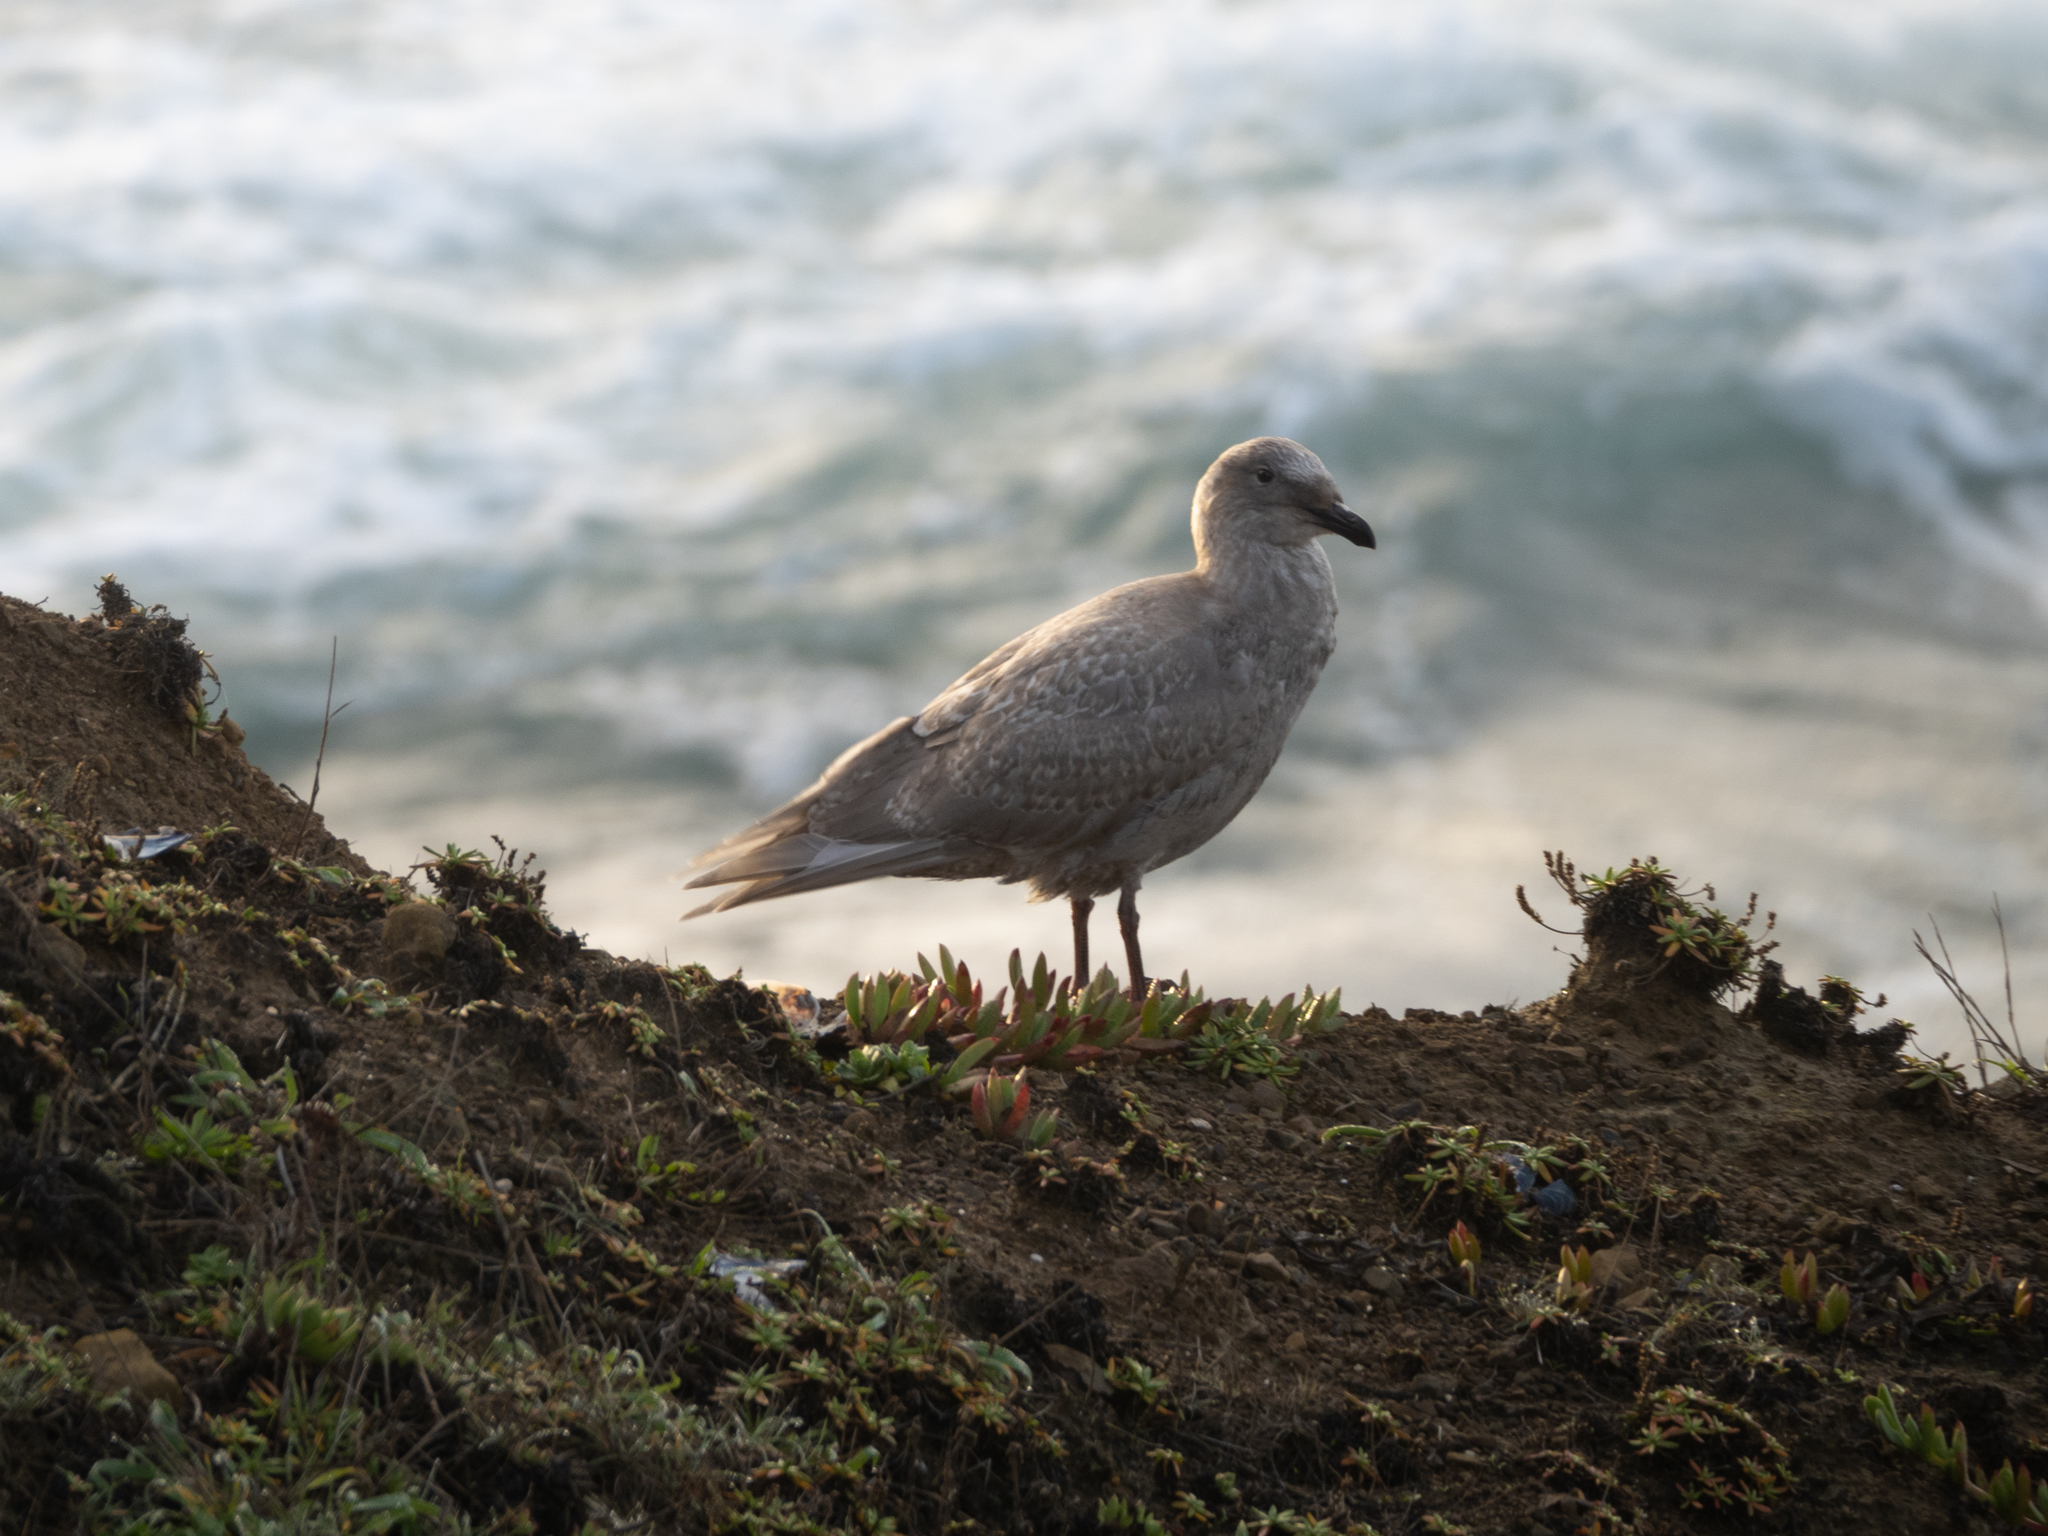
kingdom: Animalia
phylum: Chordata
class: Aves
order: Charadriiformes
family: Laridae
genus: Larus
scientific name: Larus glaucescens
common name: Glaucous-winged gull
